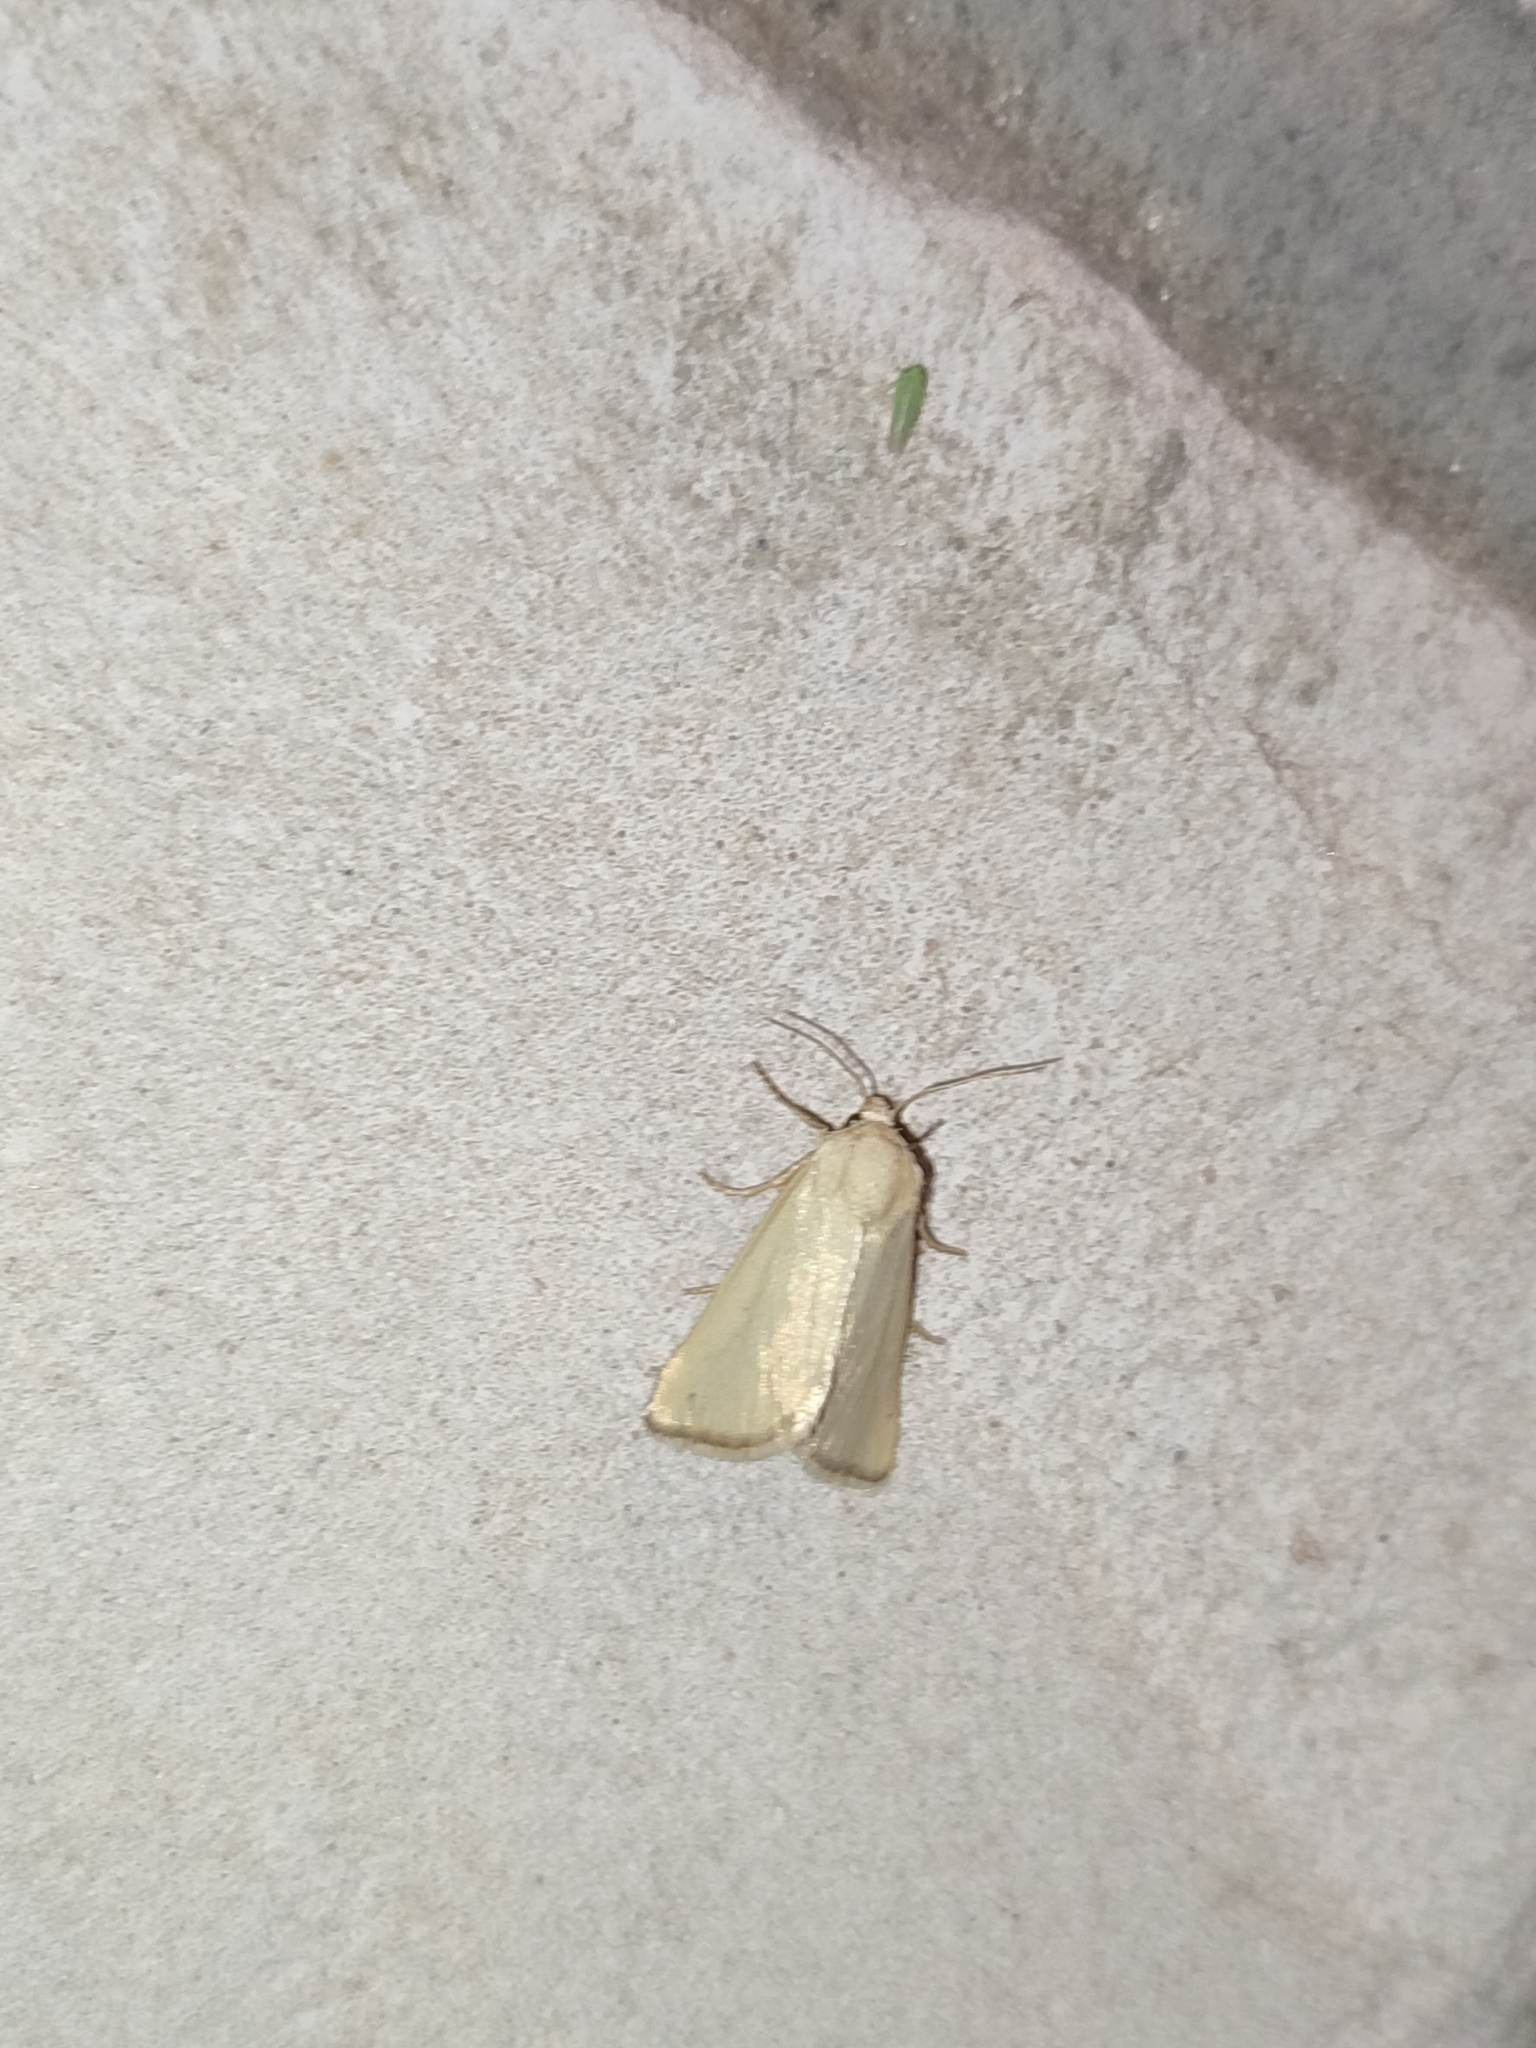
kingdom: Animalia
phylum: Arthropoda
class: Insecta
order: Lepidoptera
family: Noctuidae
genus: Aegle
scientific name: Aegle kaekeritziana
